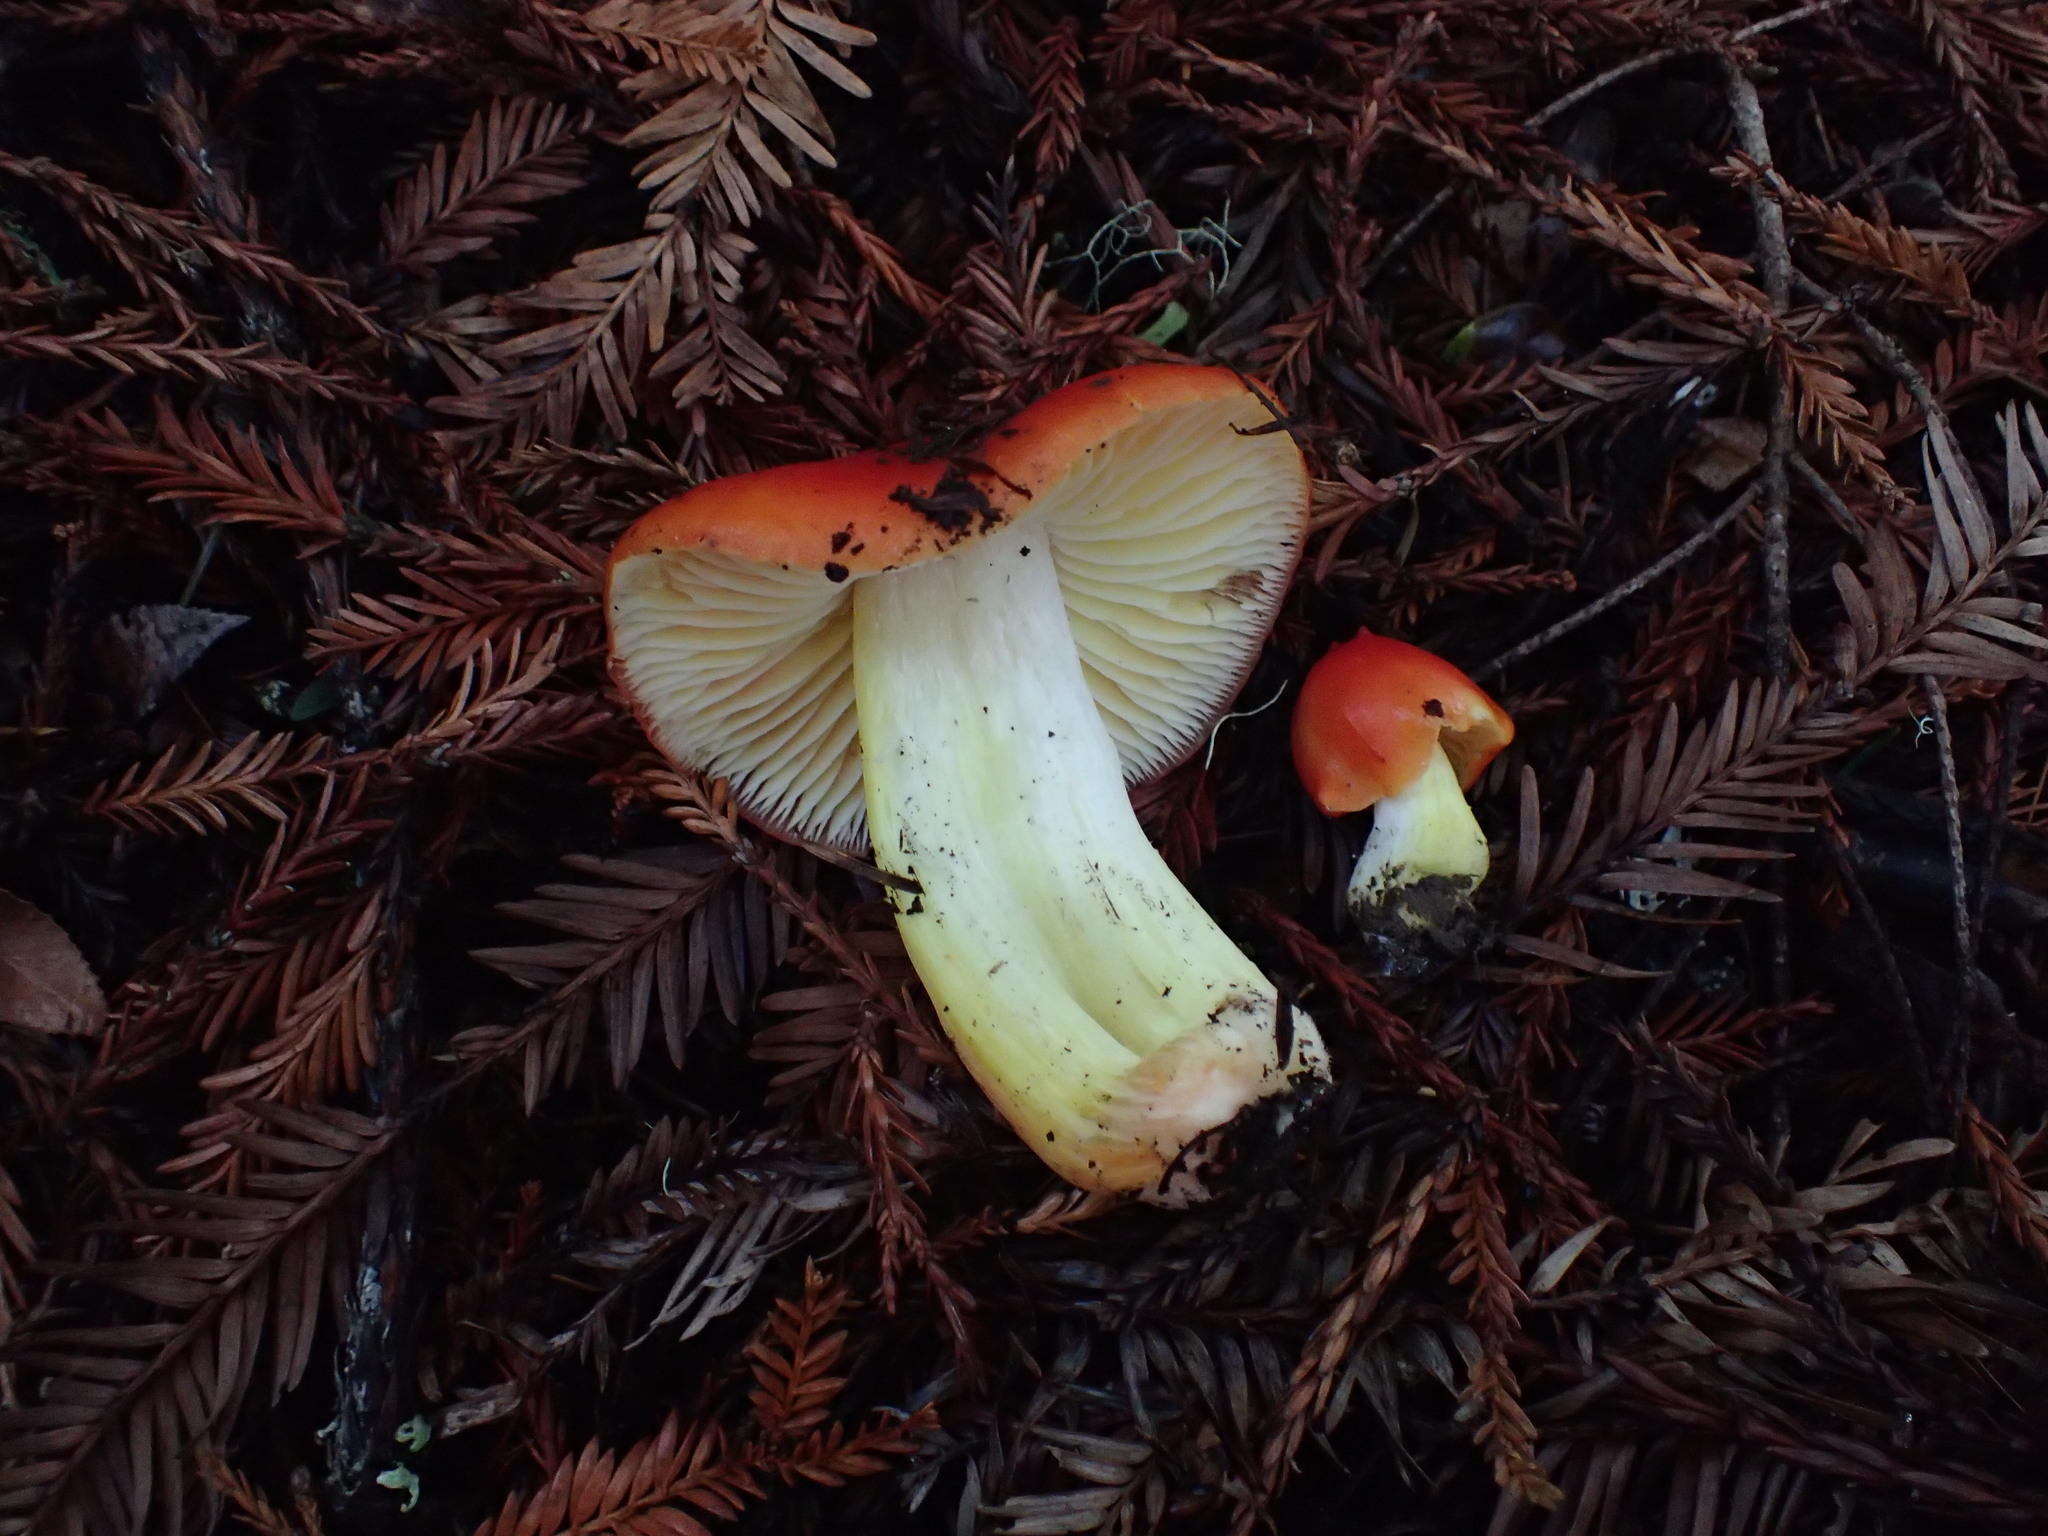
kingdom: Fungi
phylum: Basidiomycota
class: Agaricomycetes
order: Agaricales
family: Hygrophoraceae
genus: Hygrocybe
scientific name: Hygrocybe laetissima
